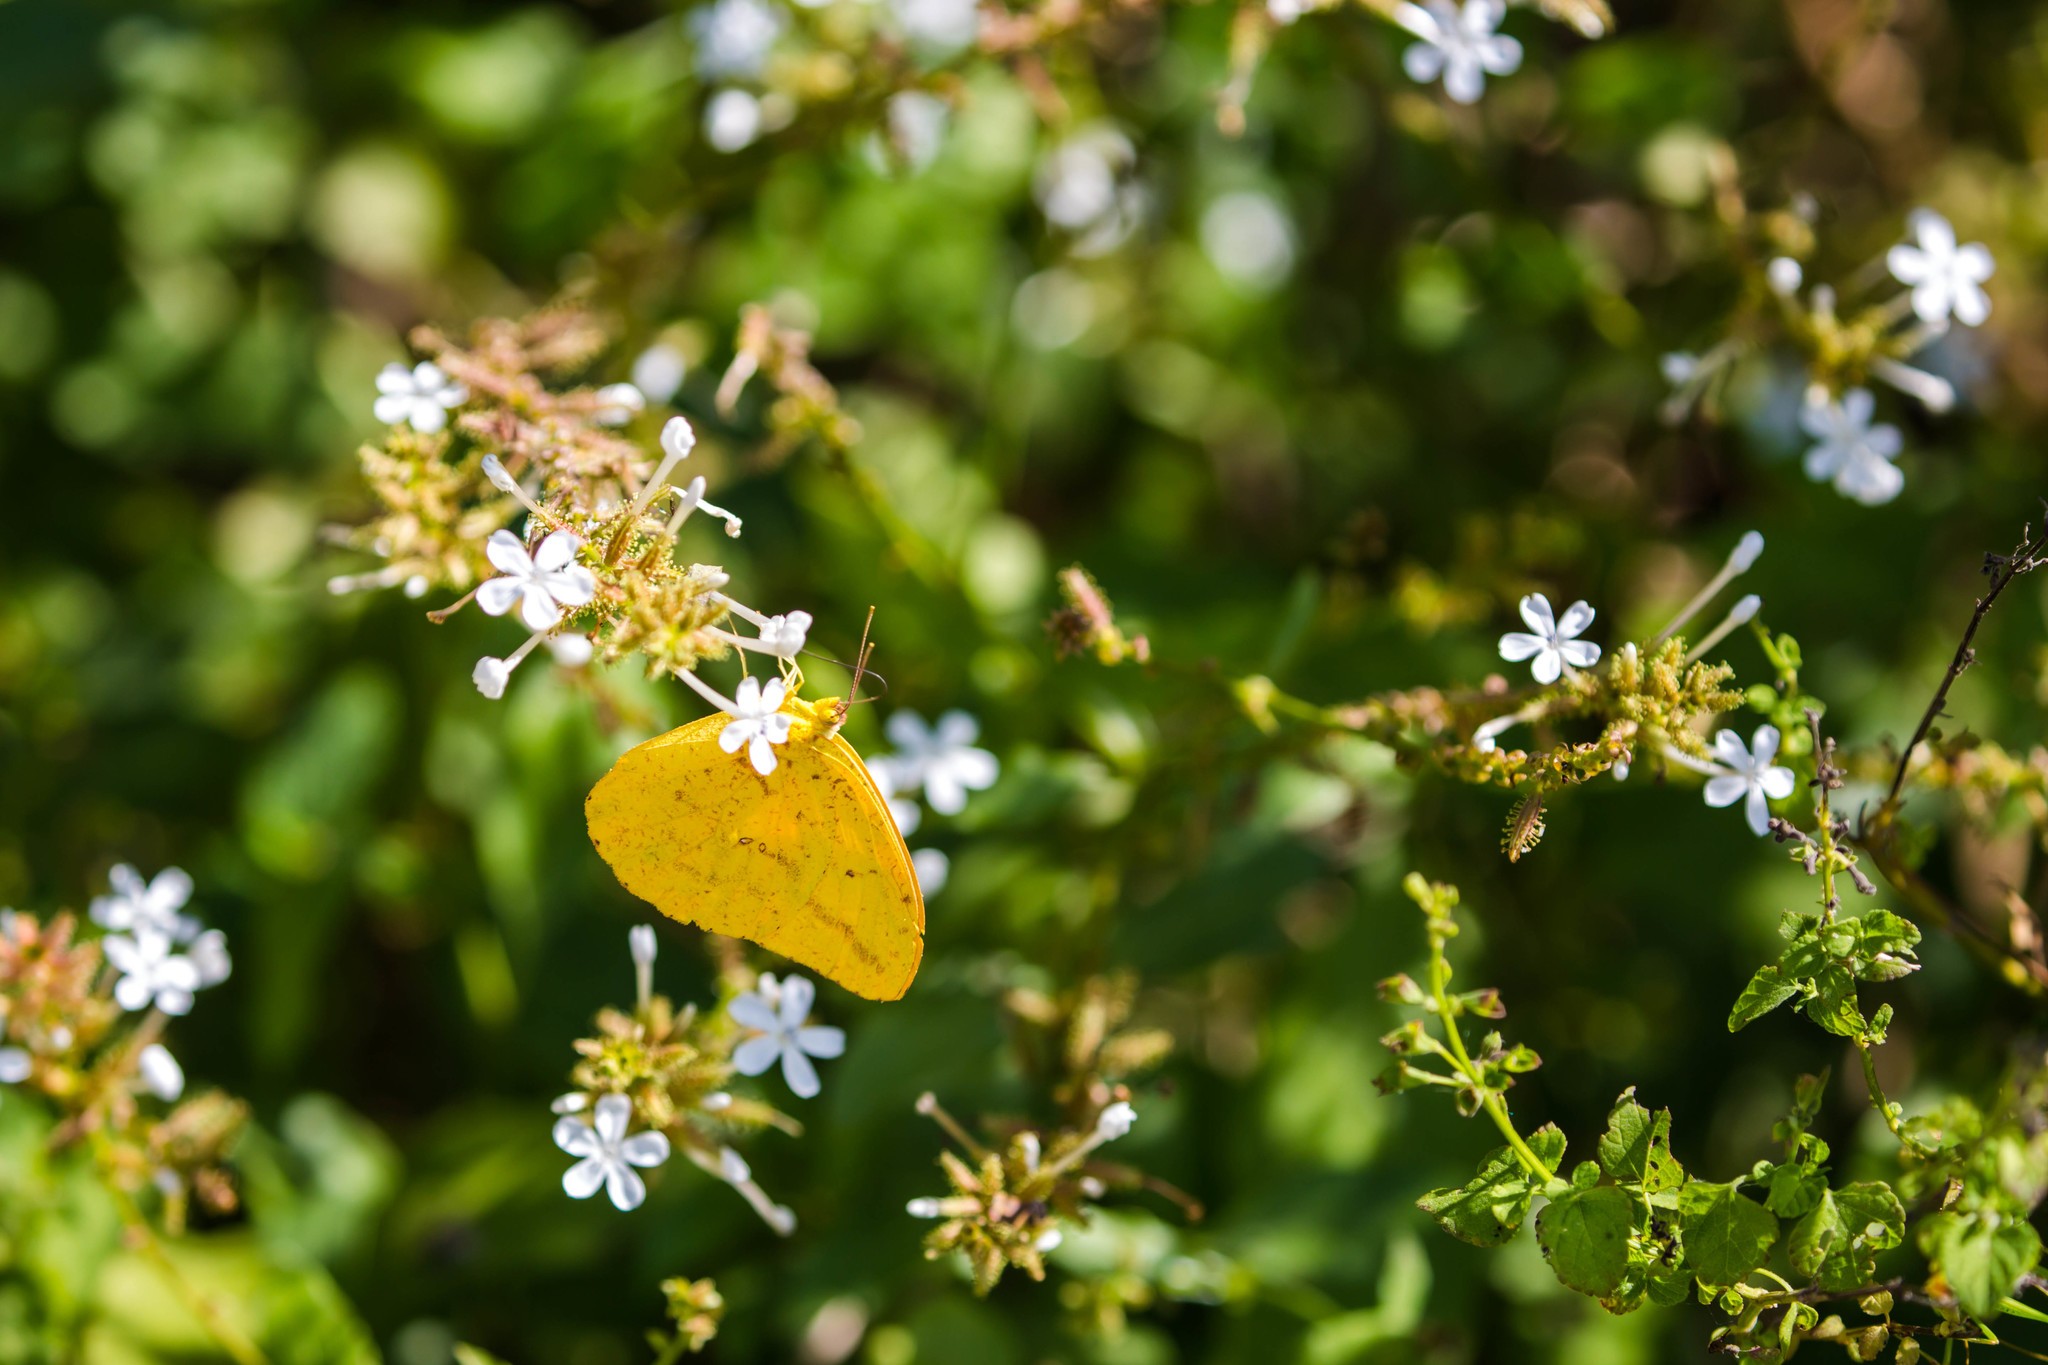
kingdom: Animalia
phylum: Arthropoda
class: Insecta
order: Lepidoptera
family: Pieridae
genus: Phoebis
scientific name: Phoebis agarithe
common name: Large orange sulphur
